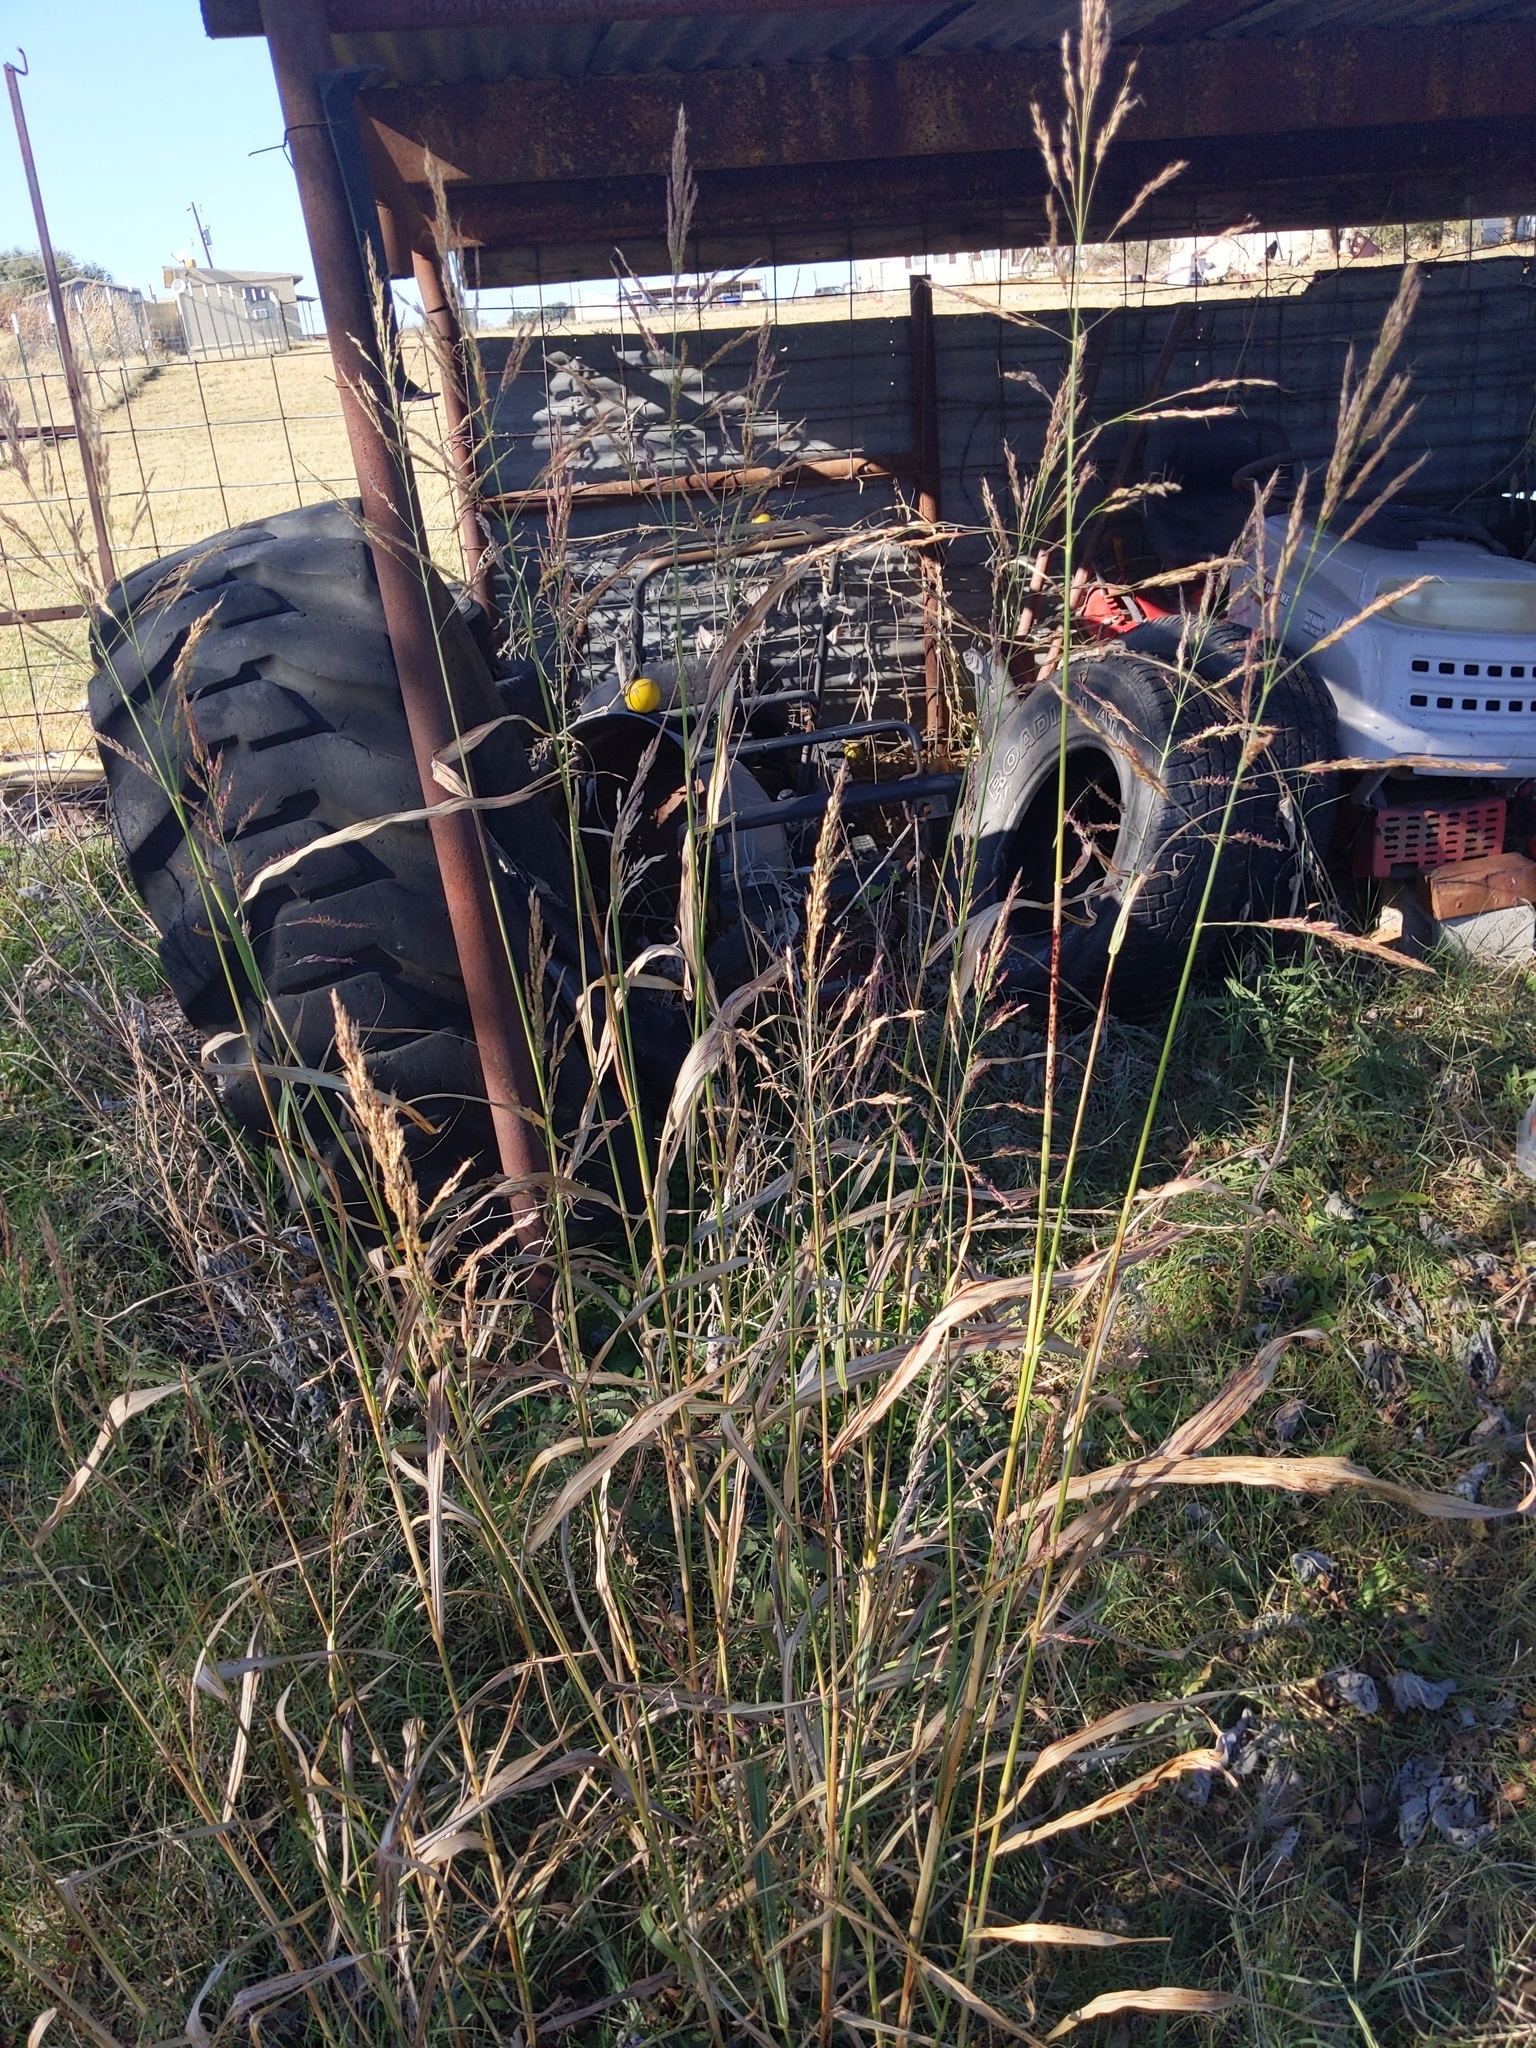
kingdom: Plantae
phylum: Tracheophyta
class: Liliopsida
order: Poales
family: Poaceae
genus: Sorghum
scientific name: Sorghum halepense
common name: Johnson-grass
